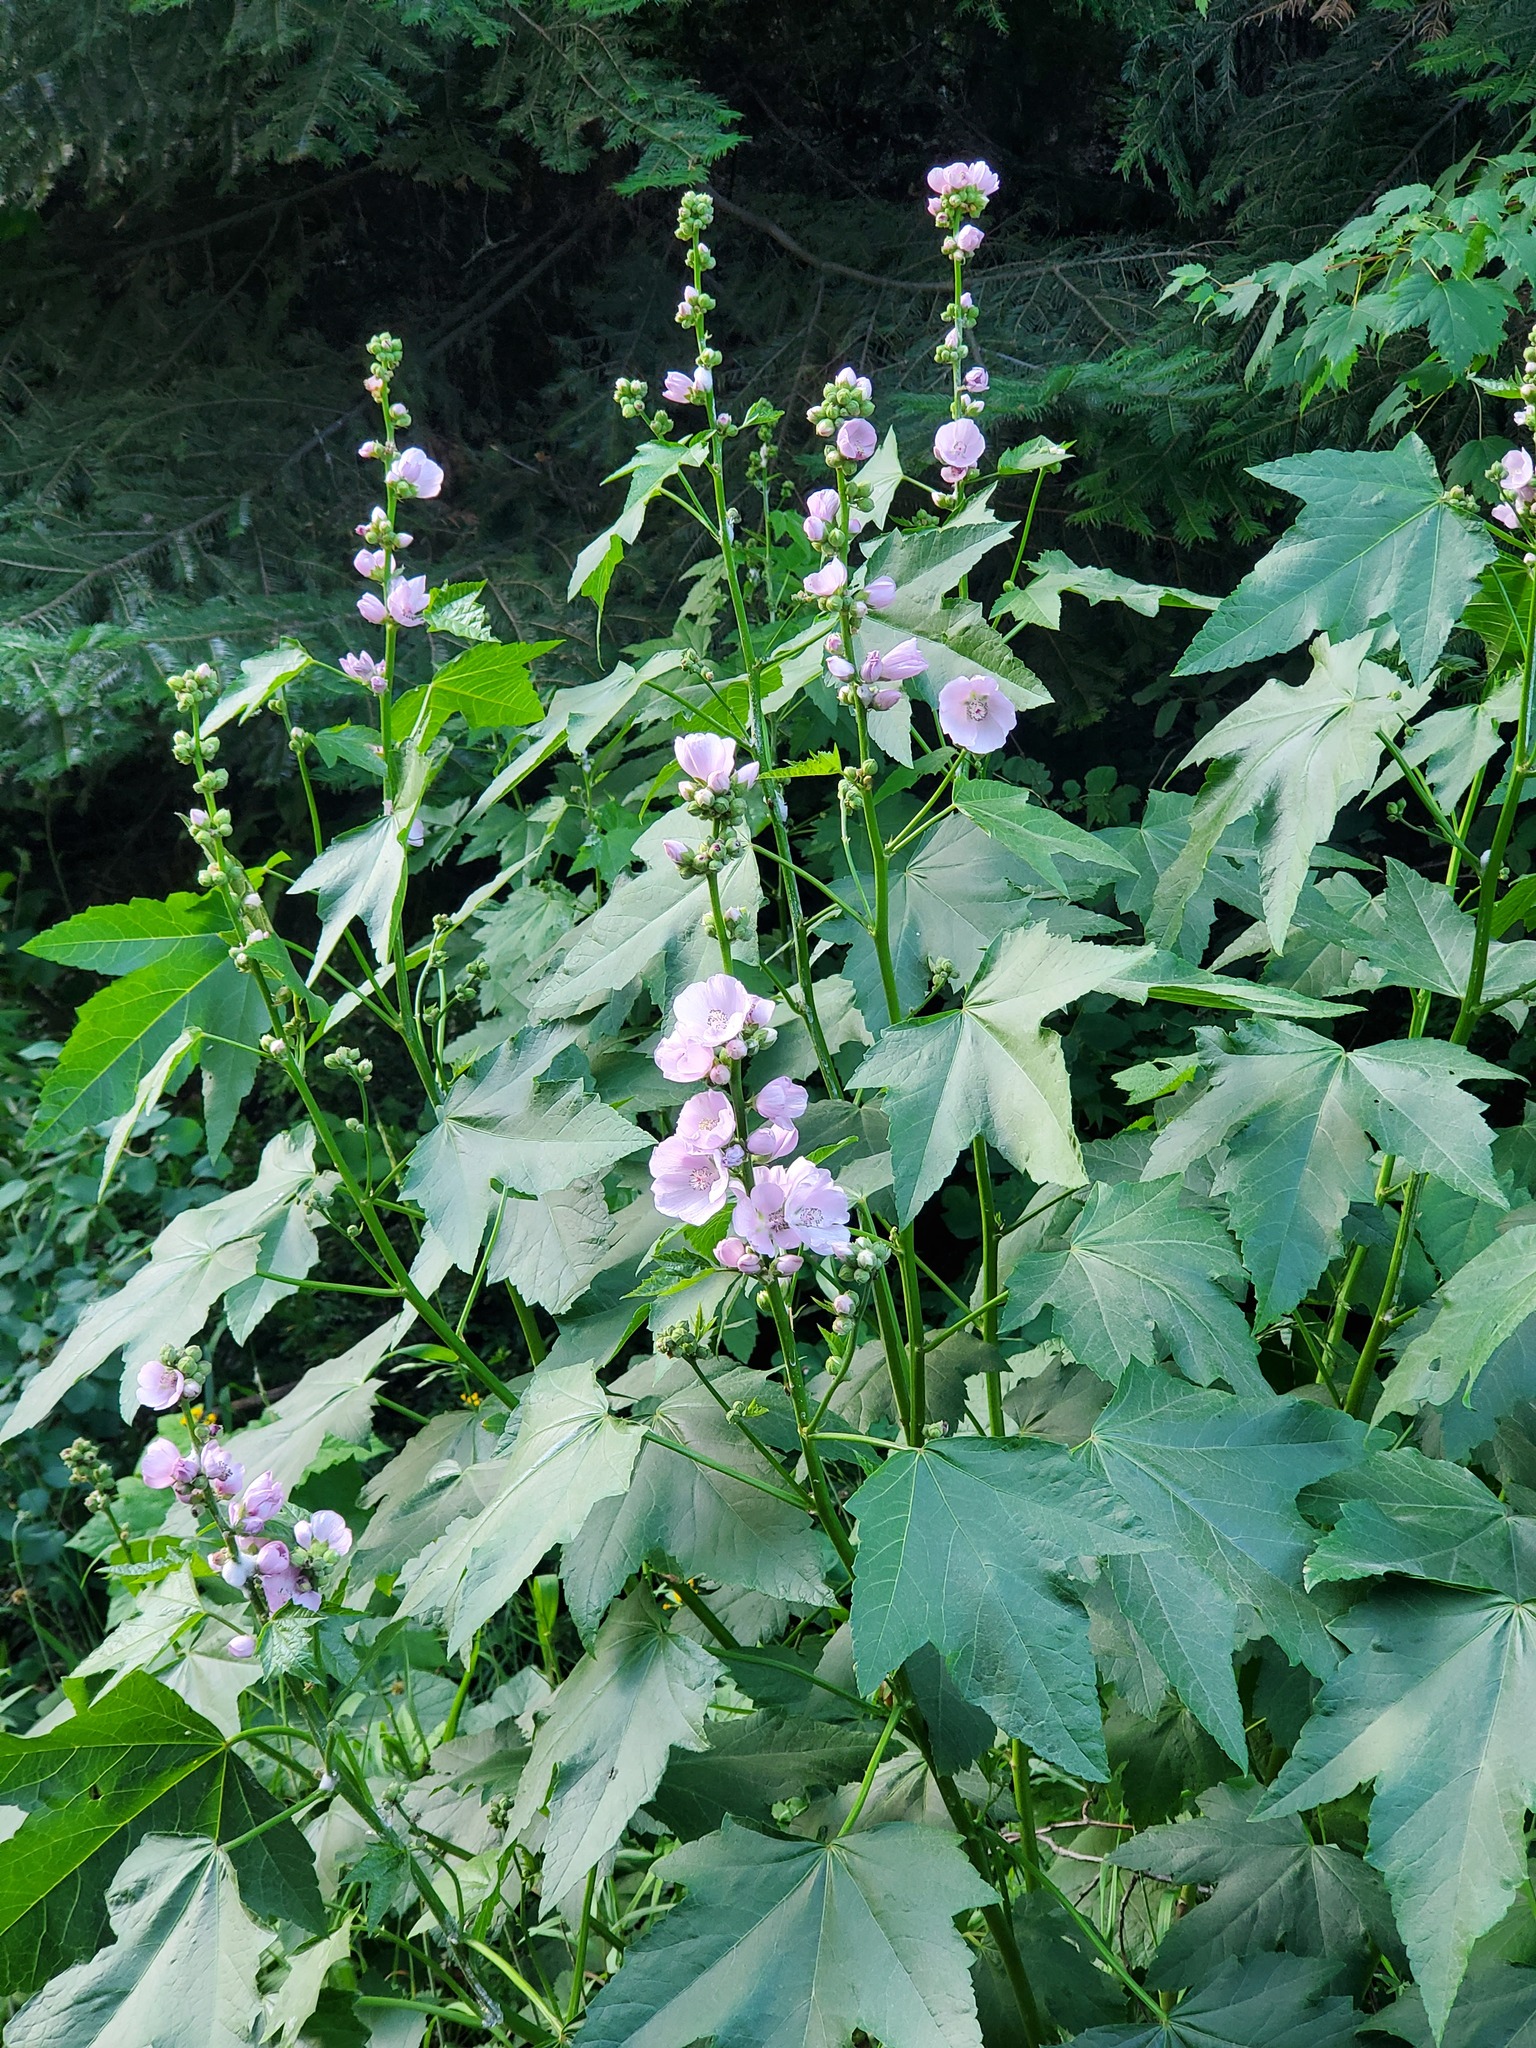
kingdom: Plantae
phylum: Tracheophyta
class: Magnoliopsida
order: Malvales
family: Malvaceae
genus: Iliamna
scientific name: Iliamna rivularis
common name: Wild hollyhock
